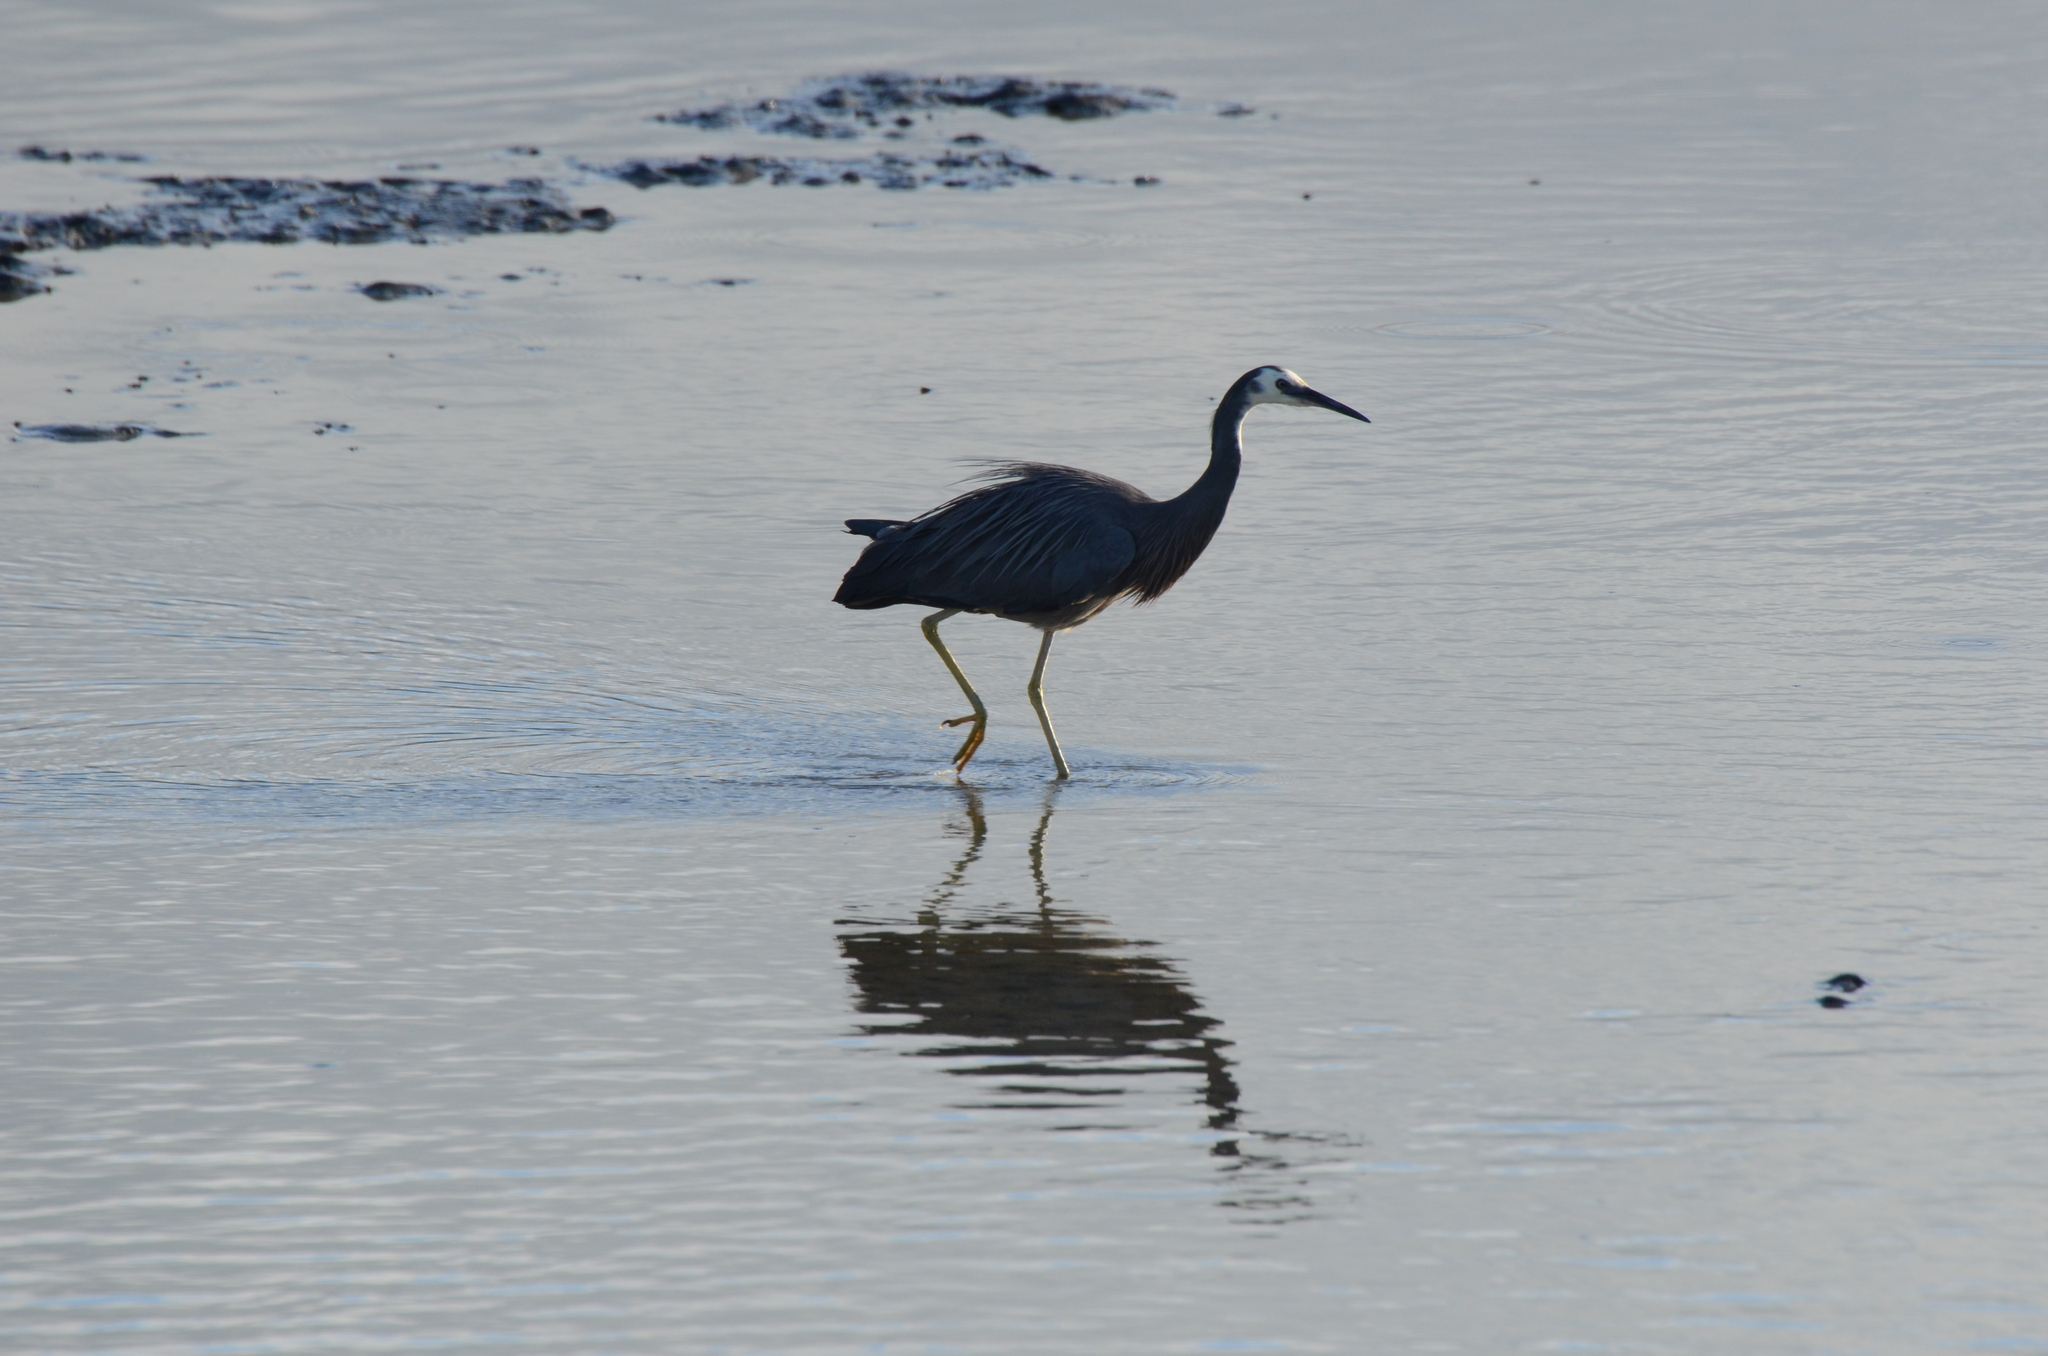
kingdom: Animalia
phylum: Chordata
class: Aves
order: Pelecaniformes
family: Ardeidae
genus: Egretta
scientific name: Egretta novaehollandiae
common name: White-faced heron
